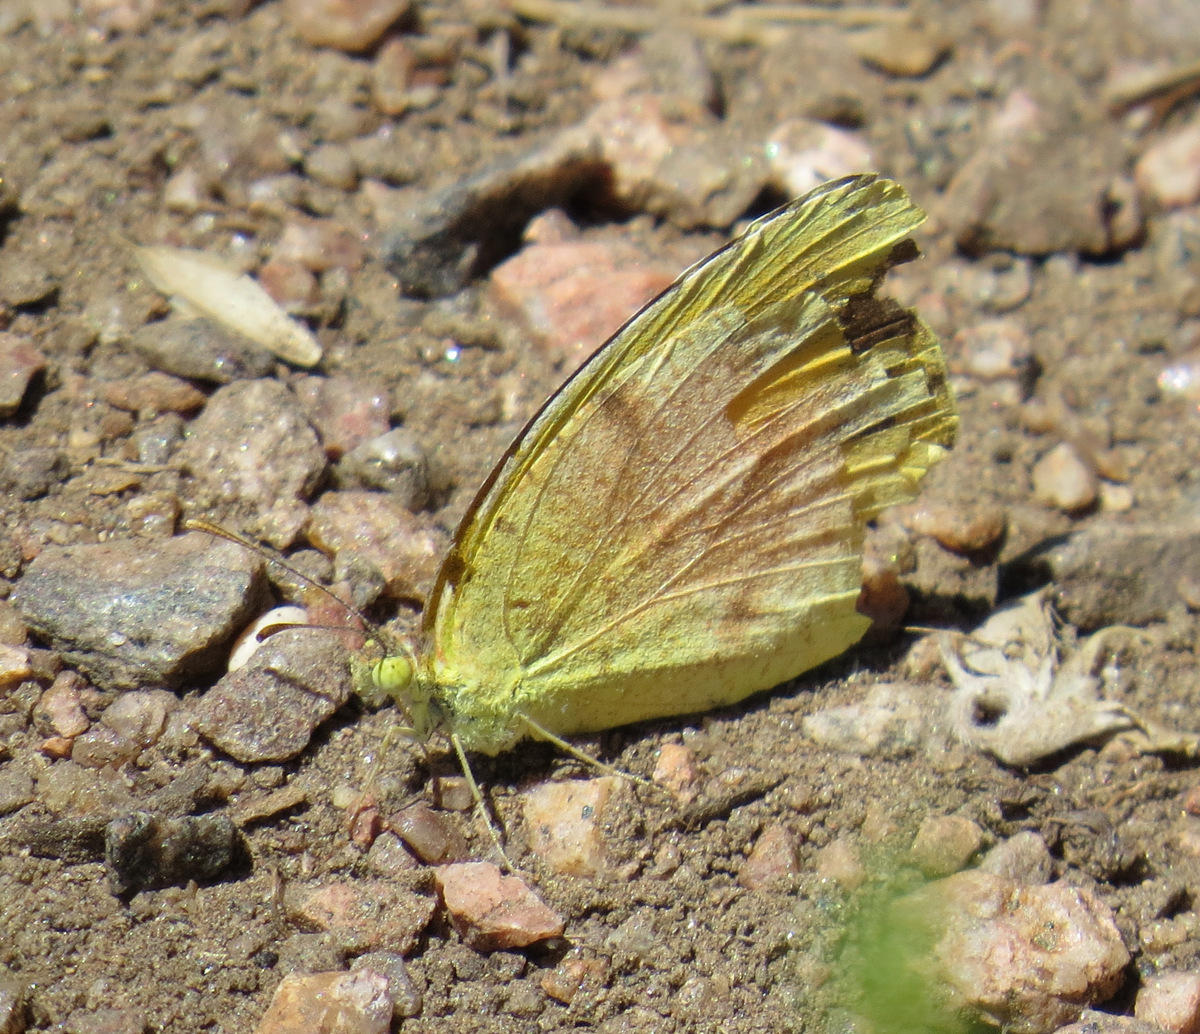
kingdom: Animalia
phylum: Arthropoda
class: Insecta
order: Lepidoptera
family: Pieridae
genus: Abaeis
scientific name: Abaeis nicippe
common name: Sleepy orange
